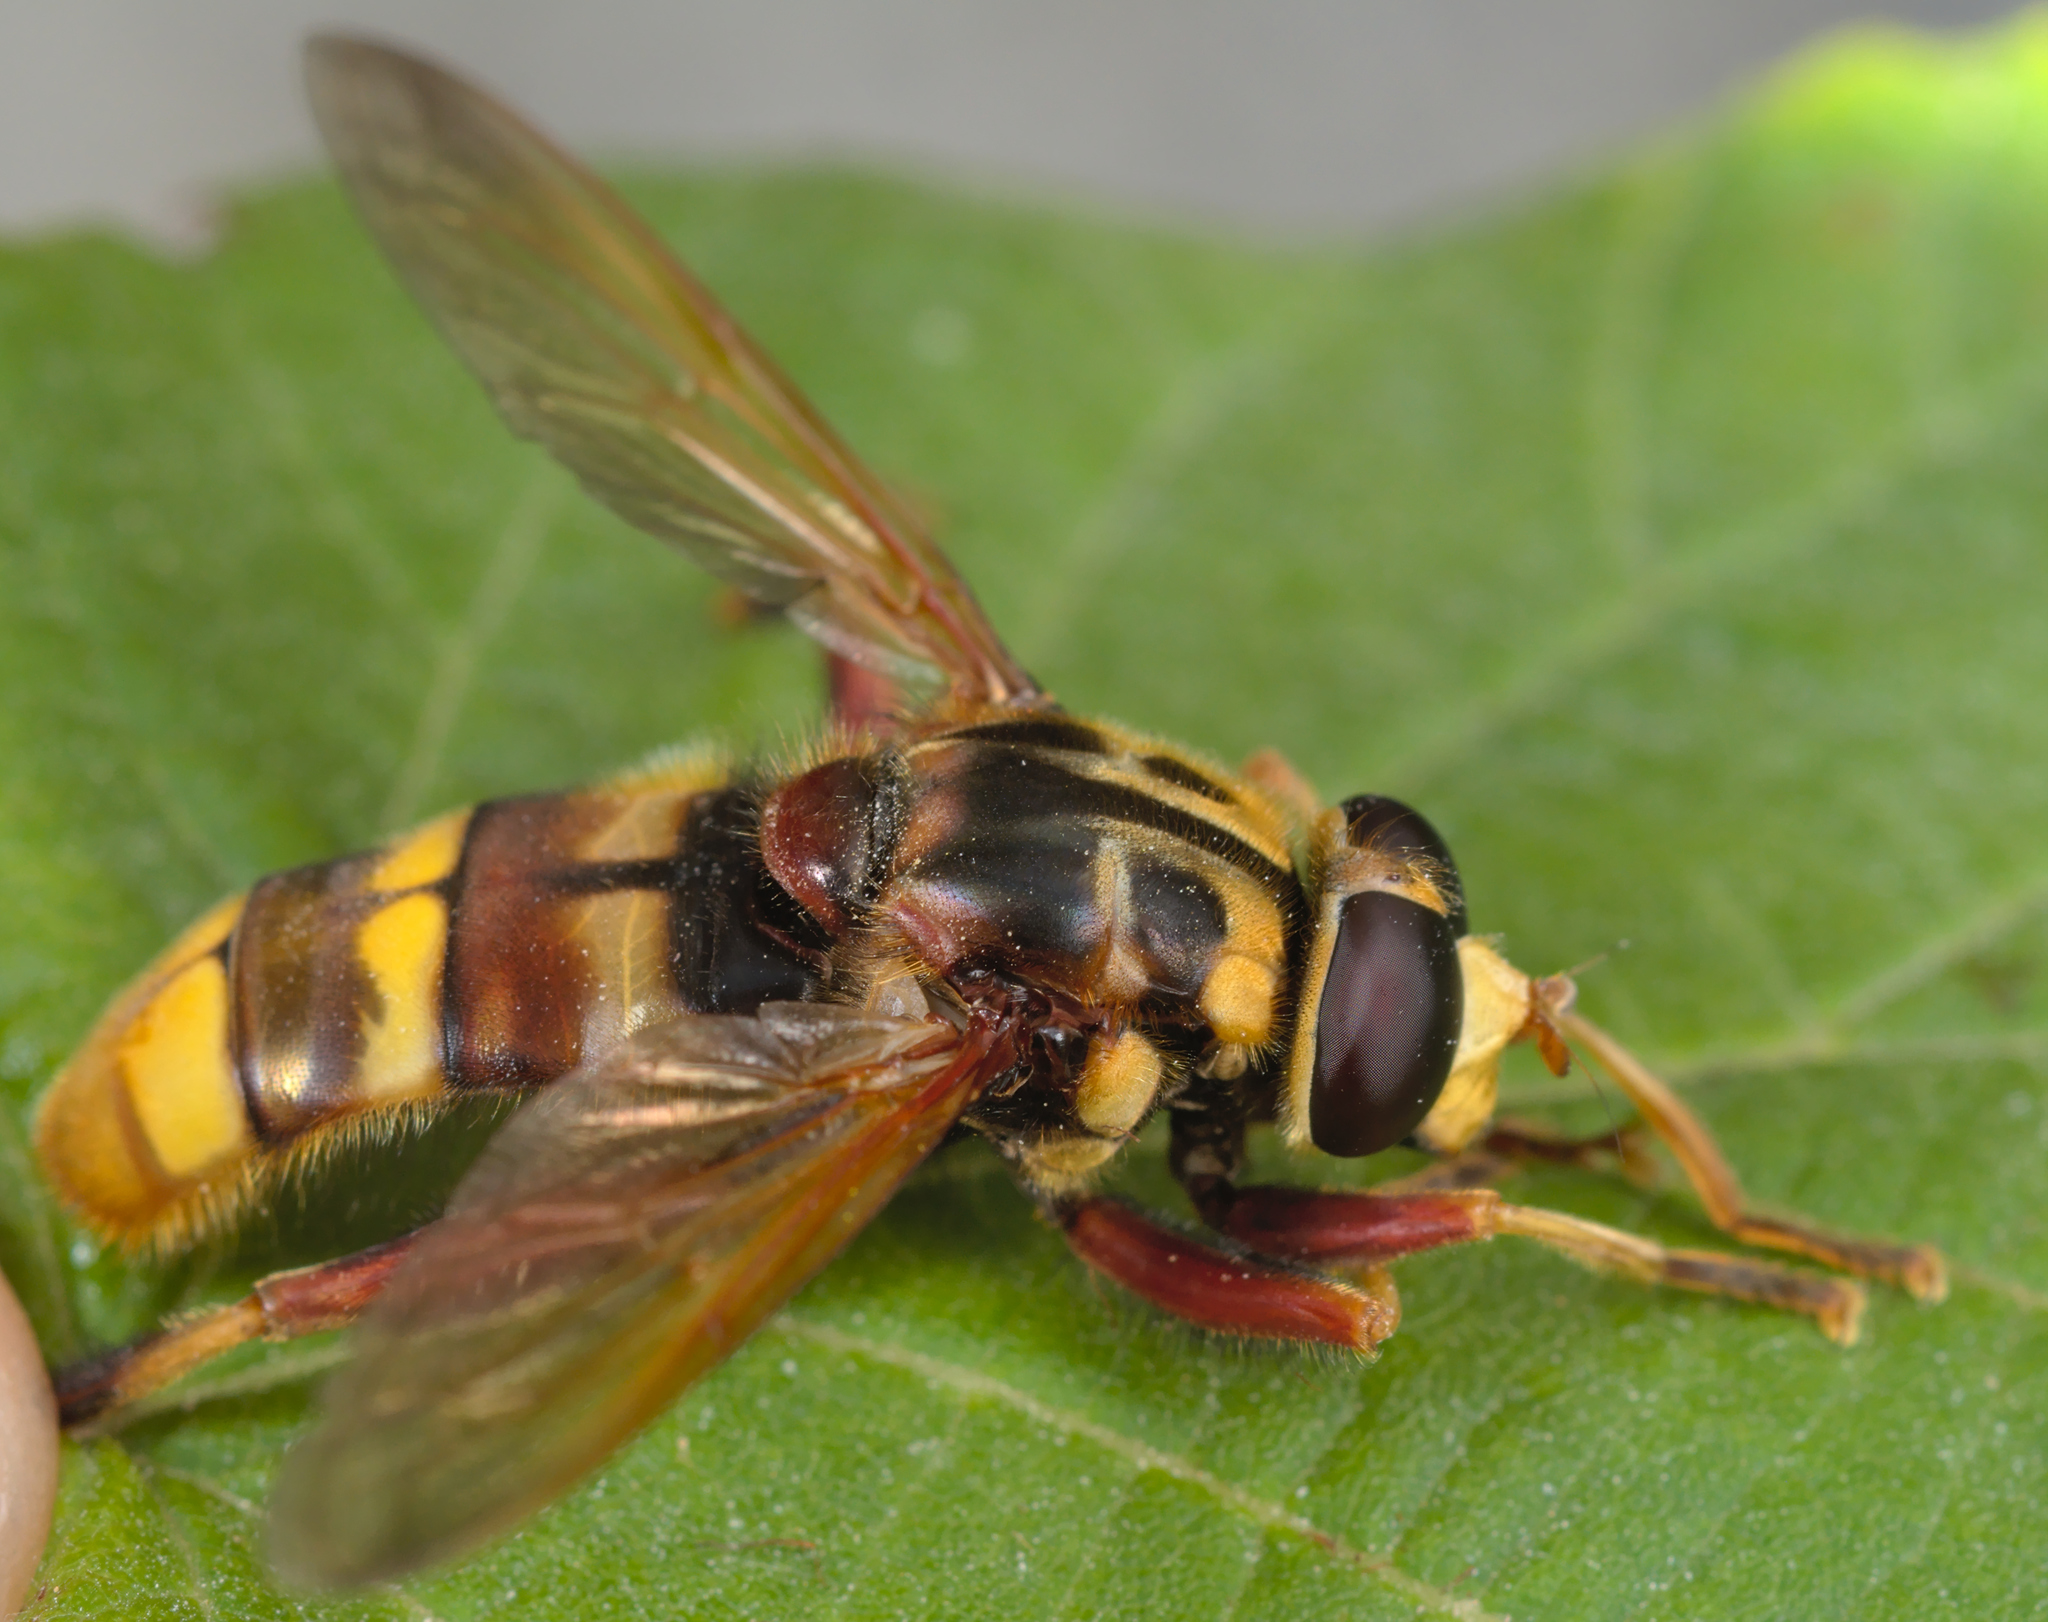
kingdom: Animalia
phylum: Arthropoda
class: Insecta
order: Diptera
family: Syrphidae
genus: Milesia
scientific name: Milesia crabroniformis
